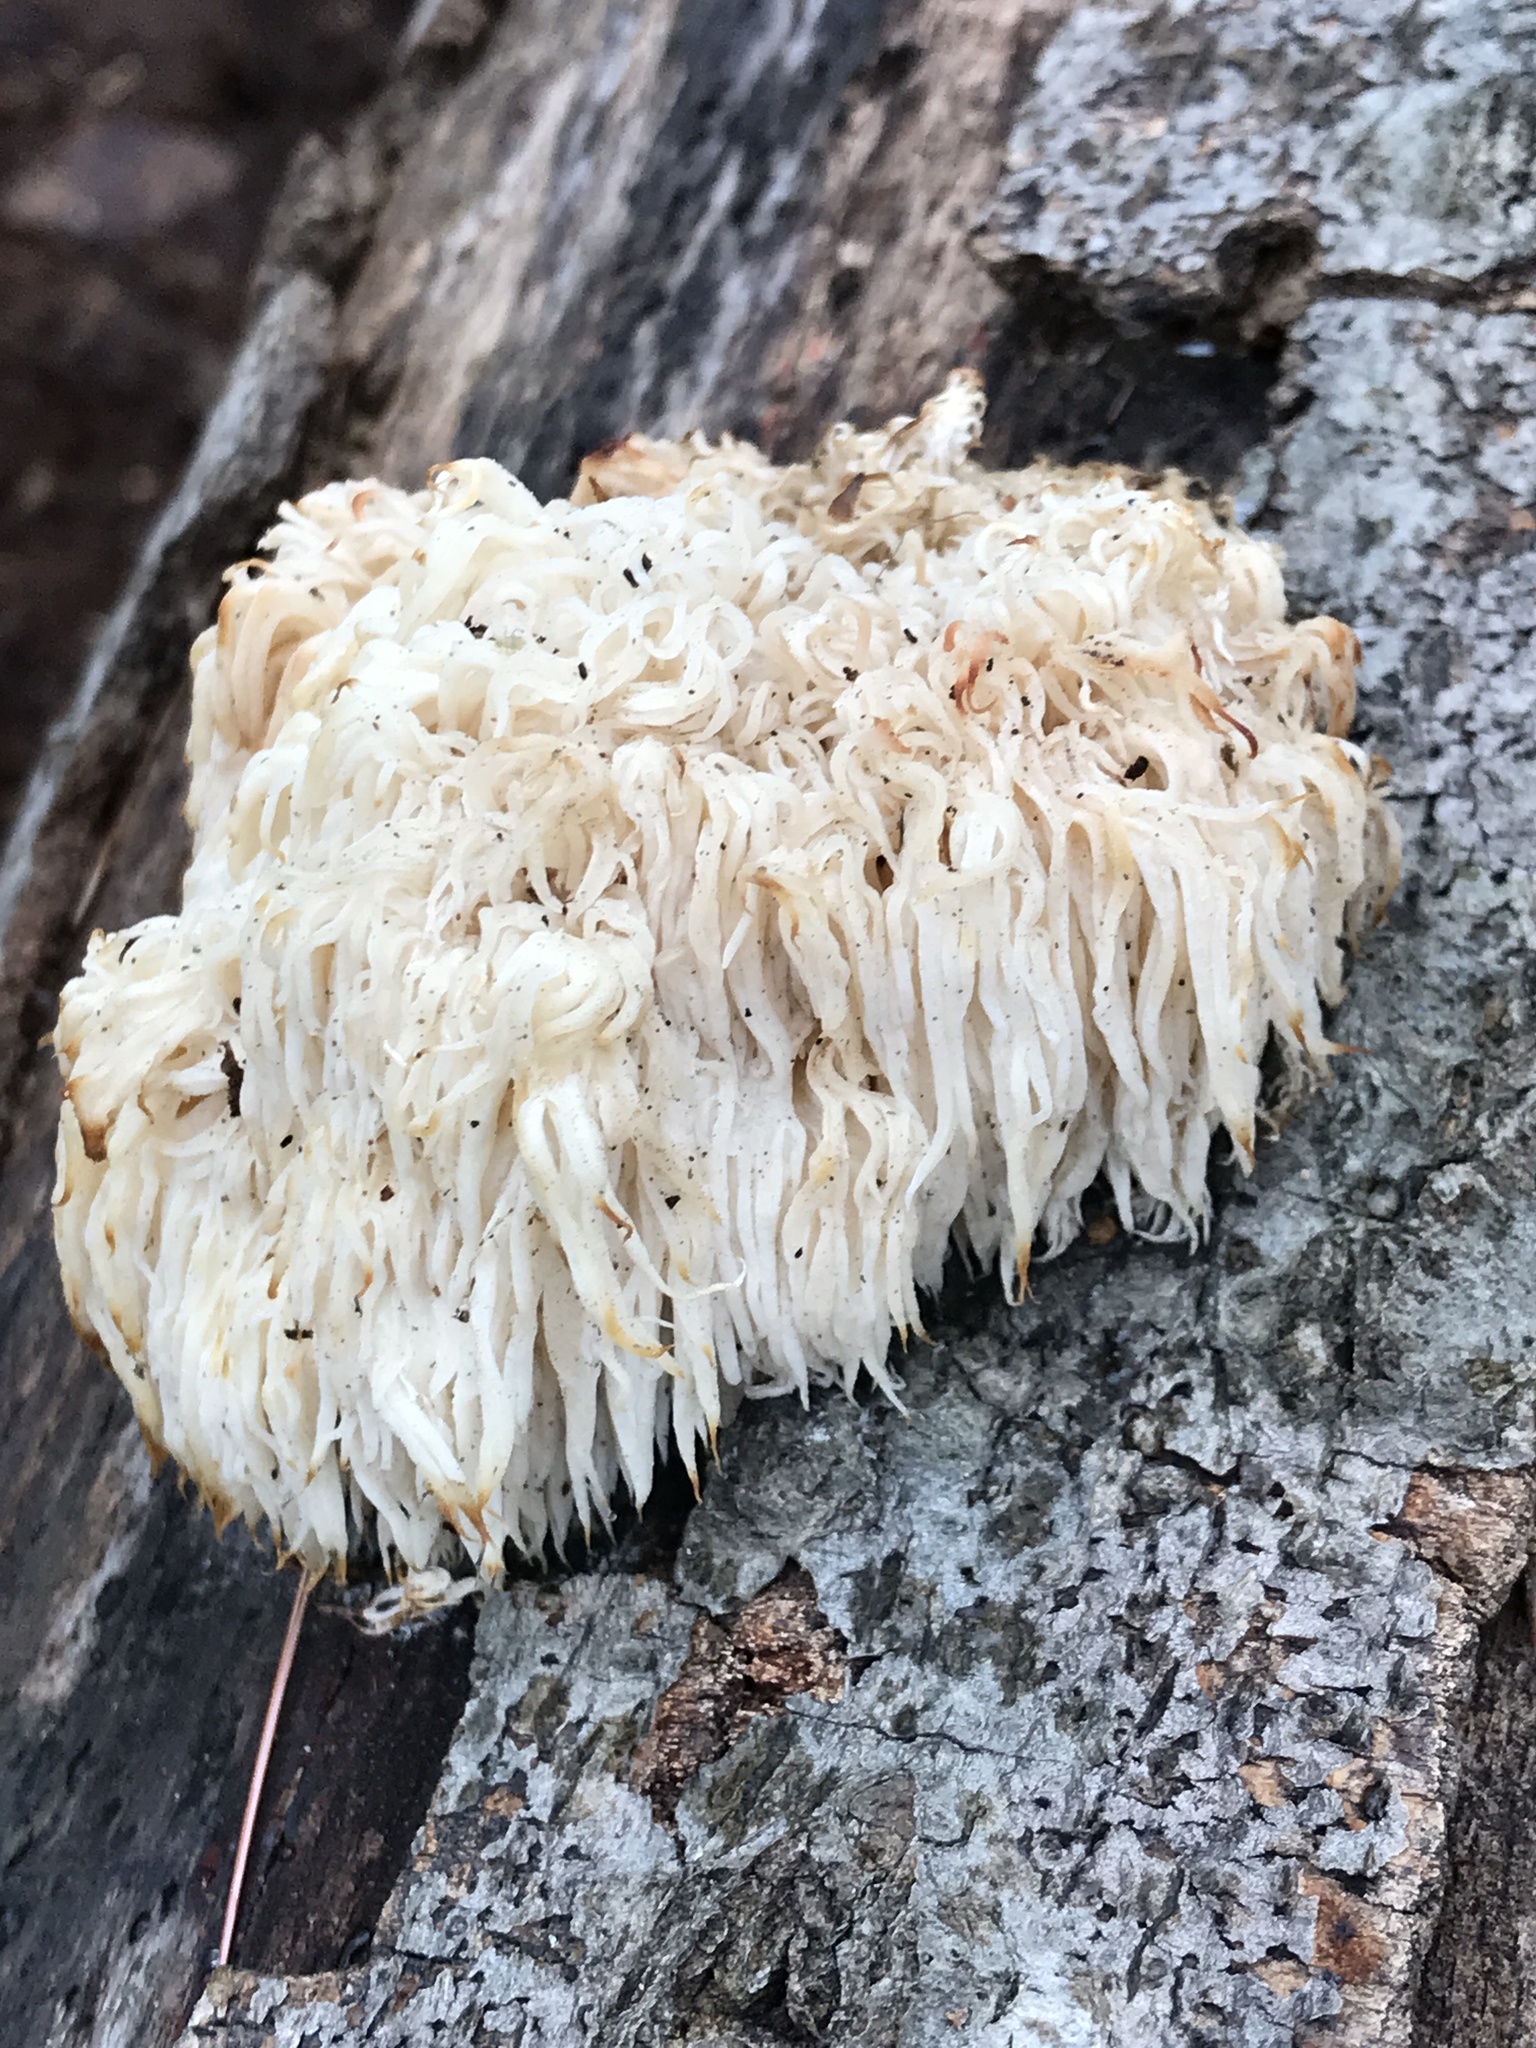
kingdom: Fungi
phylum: Basidiomycota
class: Agaricomycetes
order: Russulales
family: Hericiaceae
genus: Hericium
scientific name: Hericium americanum
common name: Bear's head tooth
